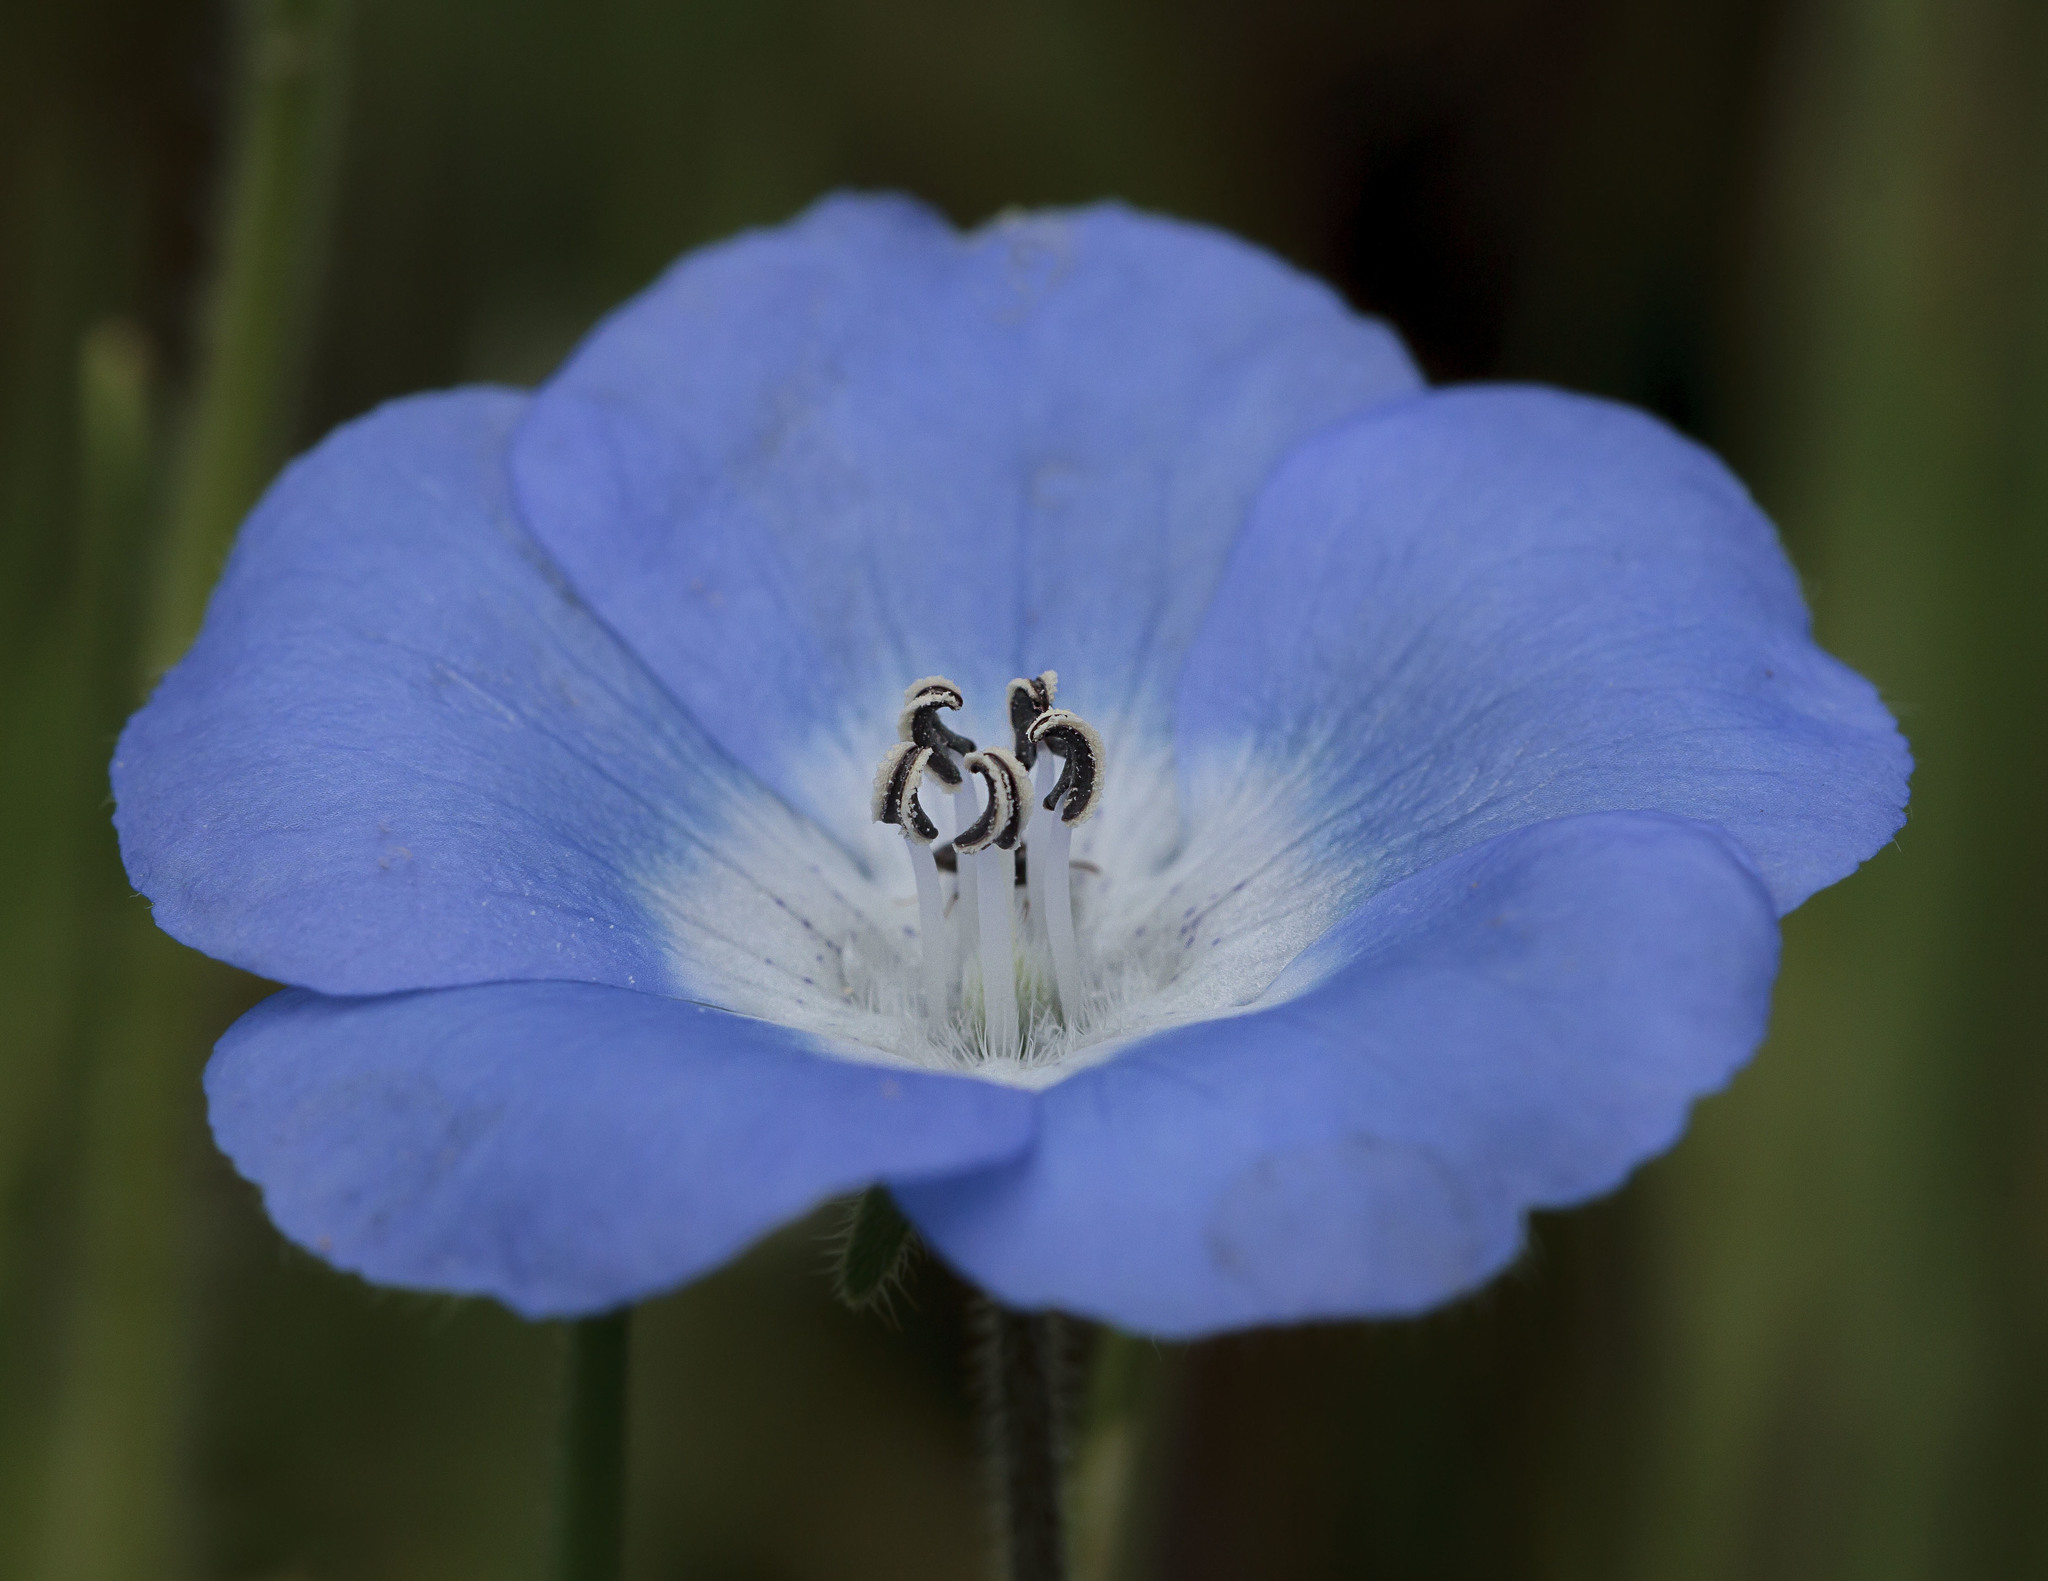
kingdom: Plantae
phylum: Tracheophyta
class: Magnoliopsida
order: Boraginales
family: Hydrophyllaceae
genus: Nemophila
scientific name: Nemophila menziesii
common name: Baby's-blue-eyes
